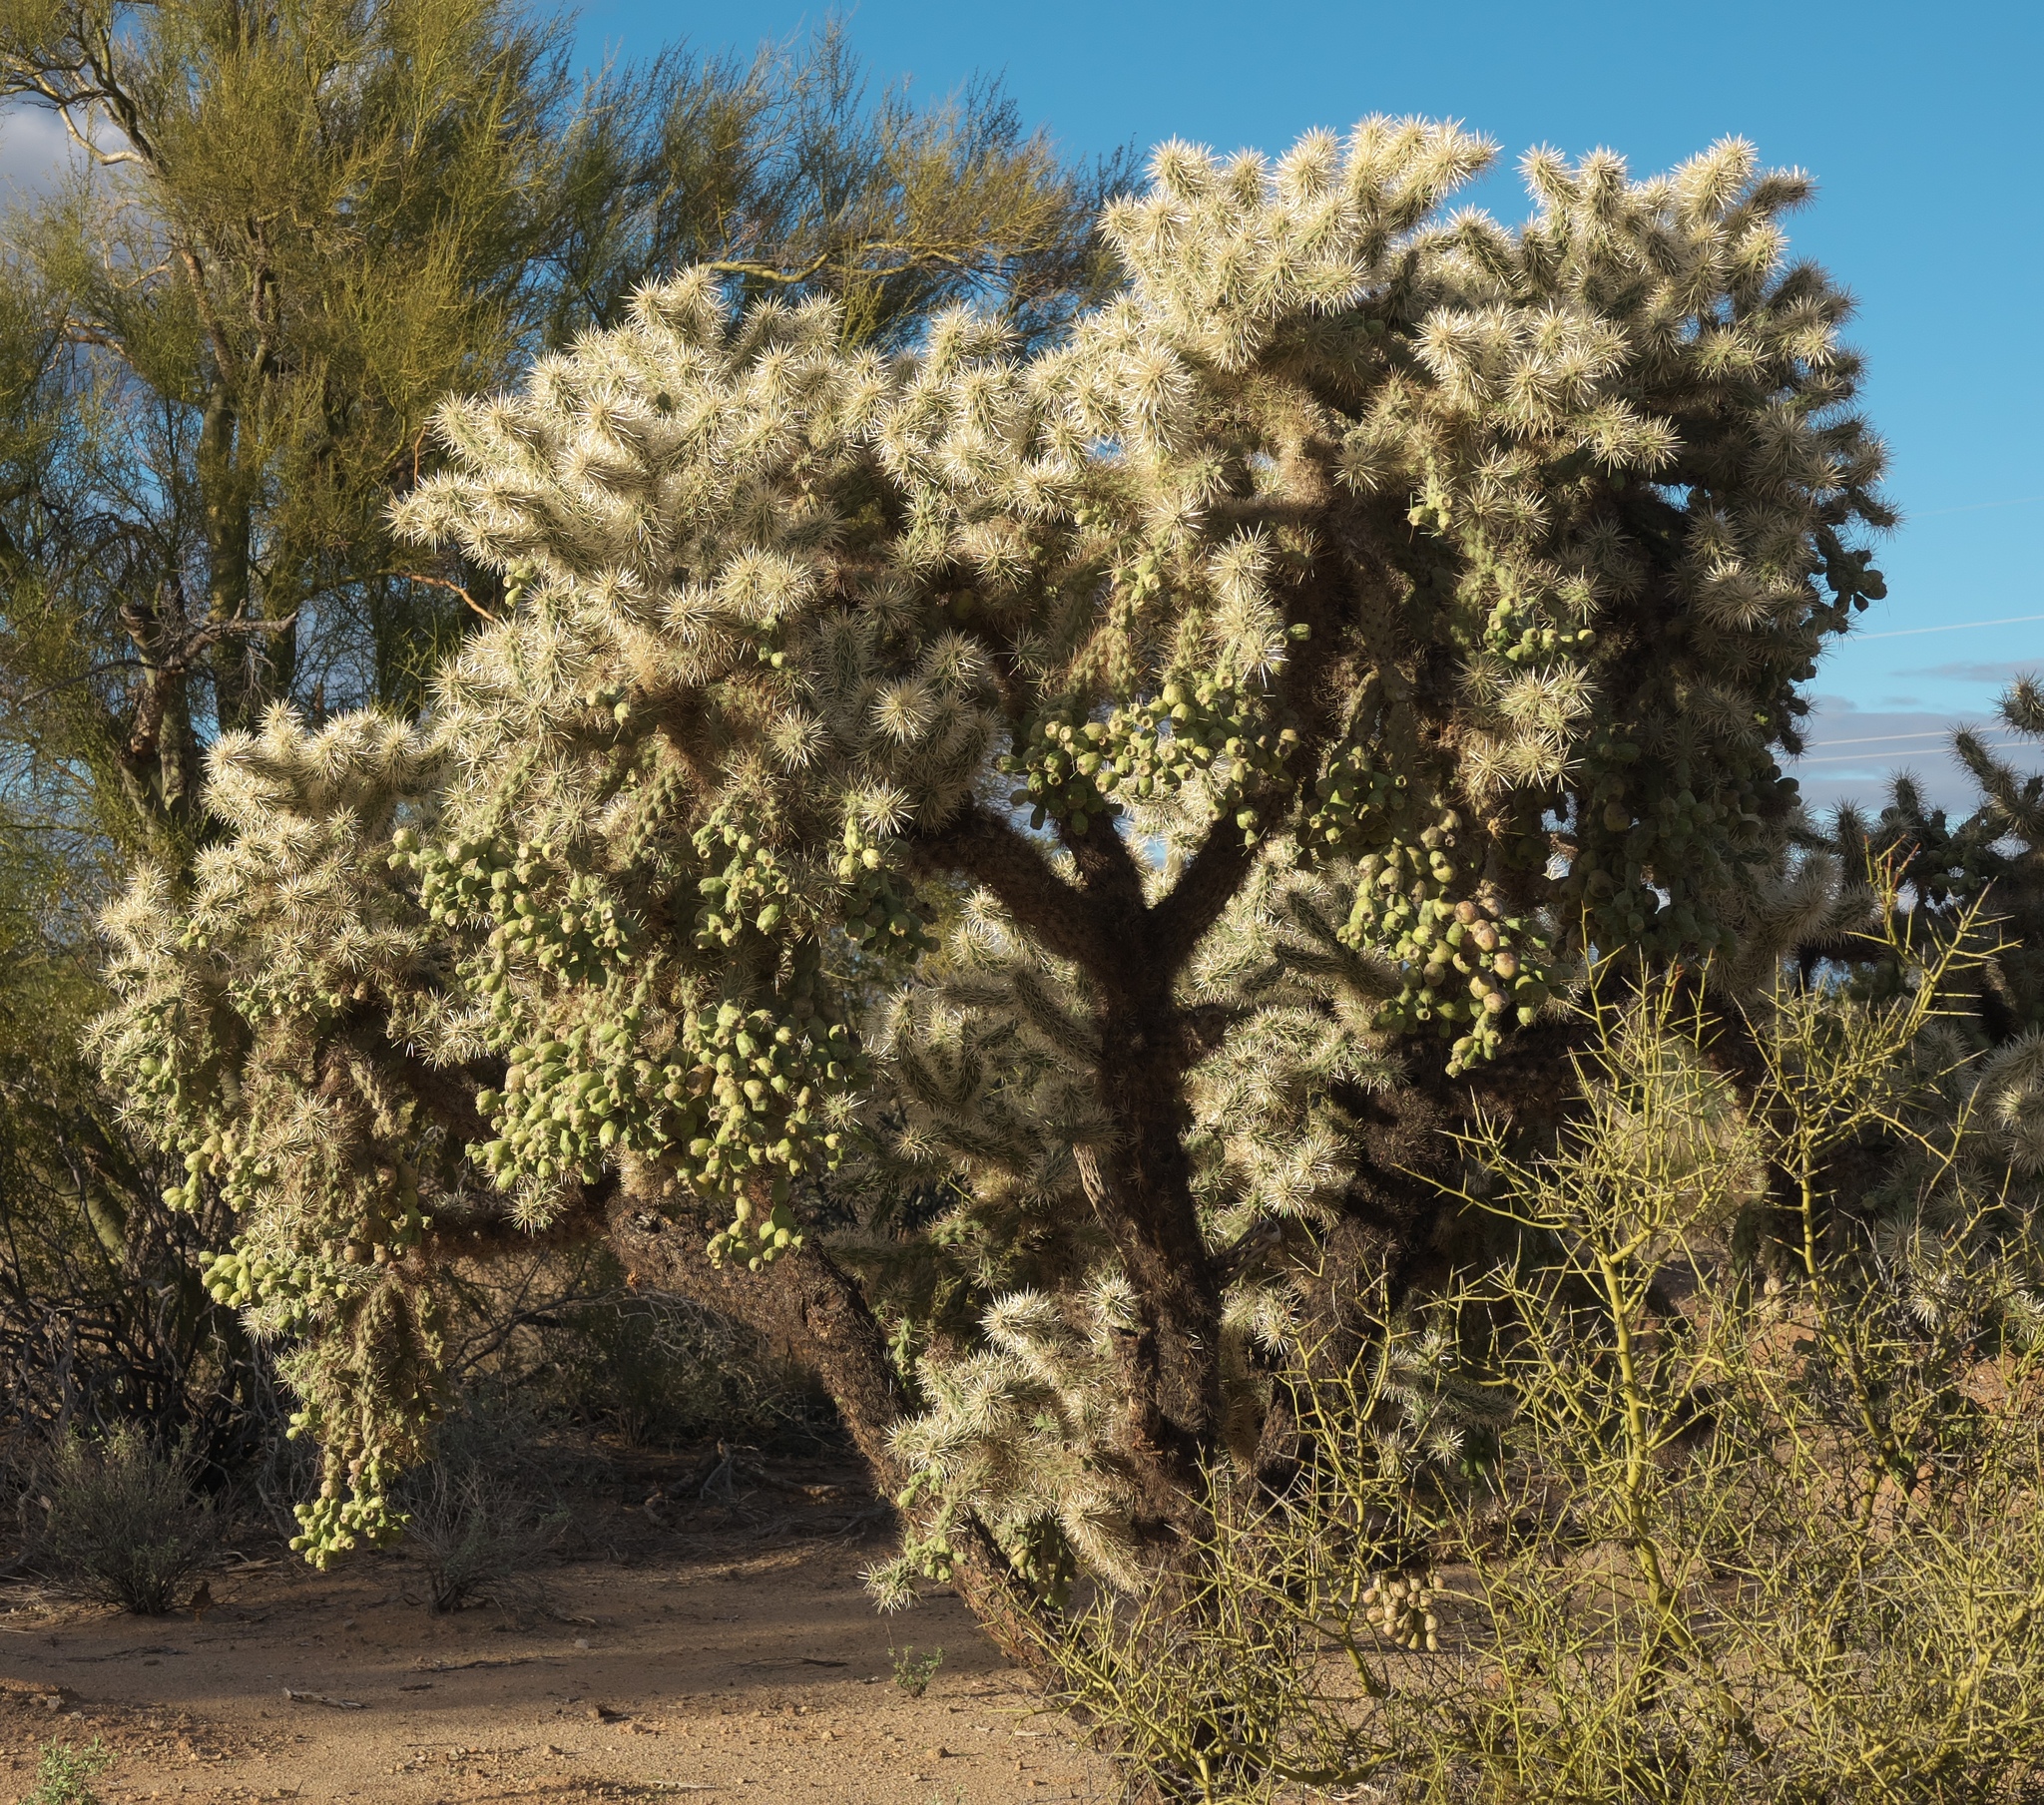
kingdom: Plantae
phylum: Tracheophyta
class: Magnoliopsida
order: Caryophyllales
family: Cactaceae
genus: Cylindropuntia
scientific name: Cylindropuntia fulgida
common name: Jumping cholla
